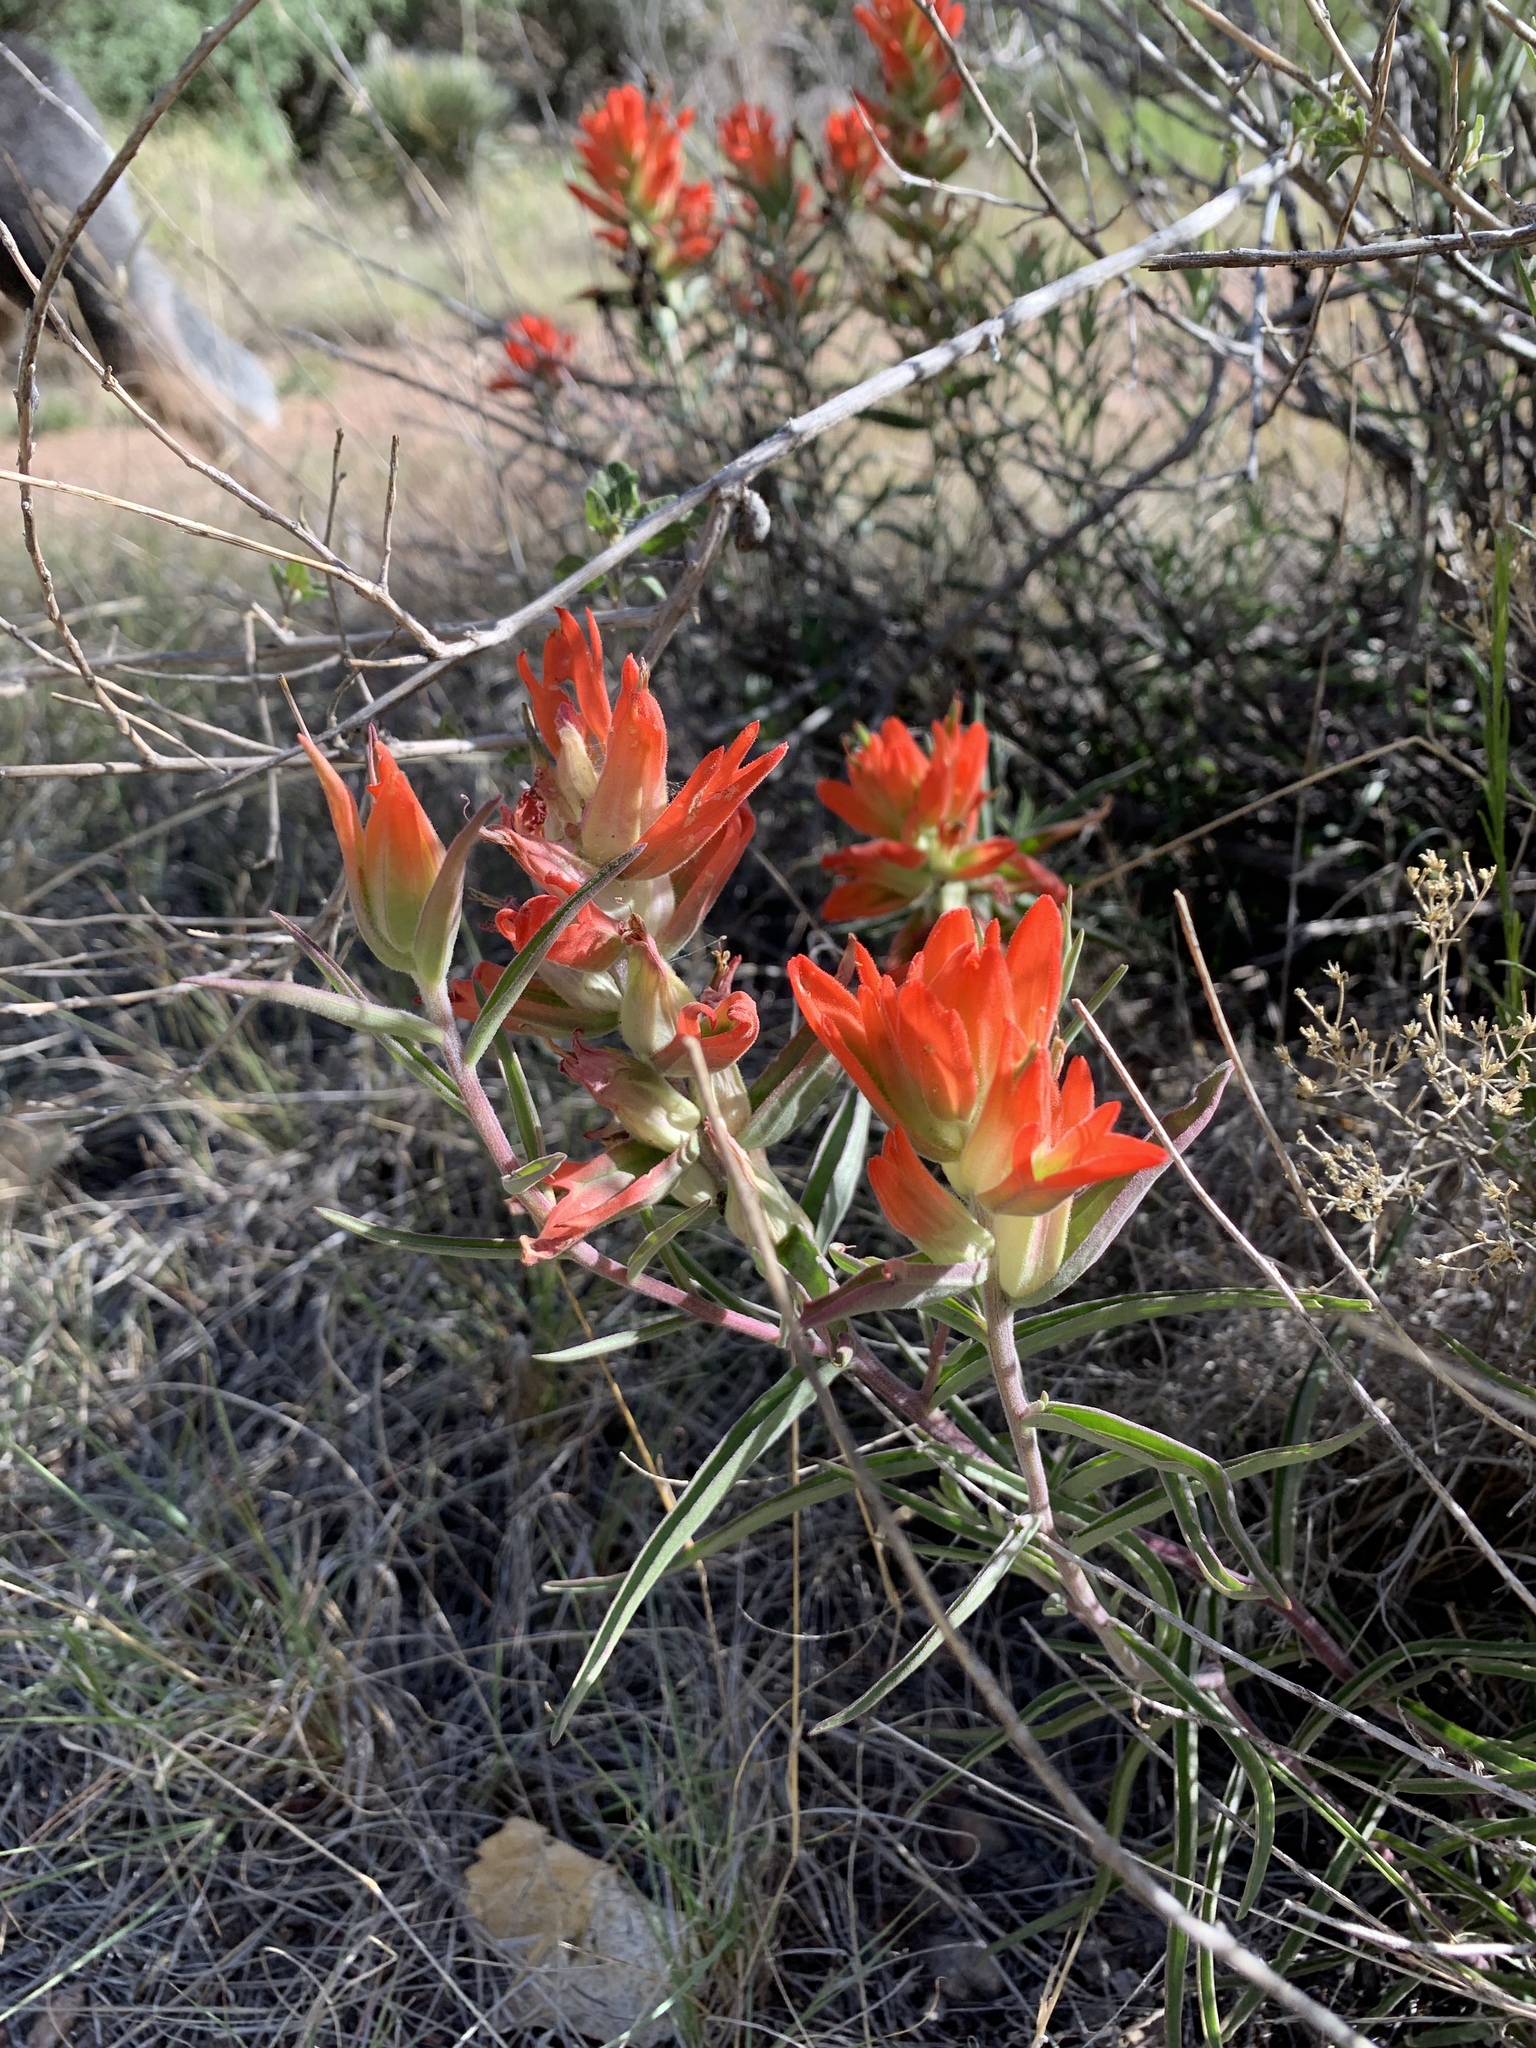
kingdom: Plantae
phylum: Tracheophyta
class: Magnoliopsida
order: Lamiales
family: Orobanchaceae
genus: Castilleja
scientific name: Castilleja integra
